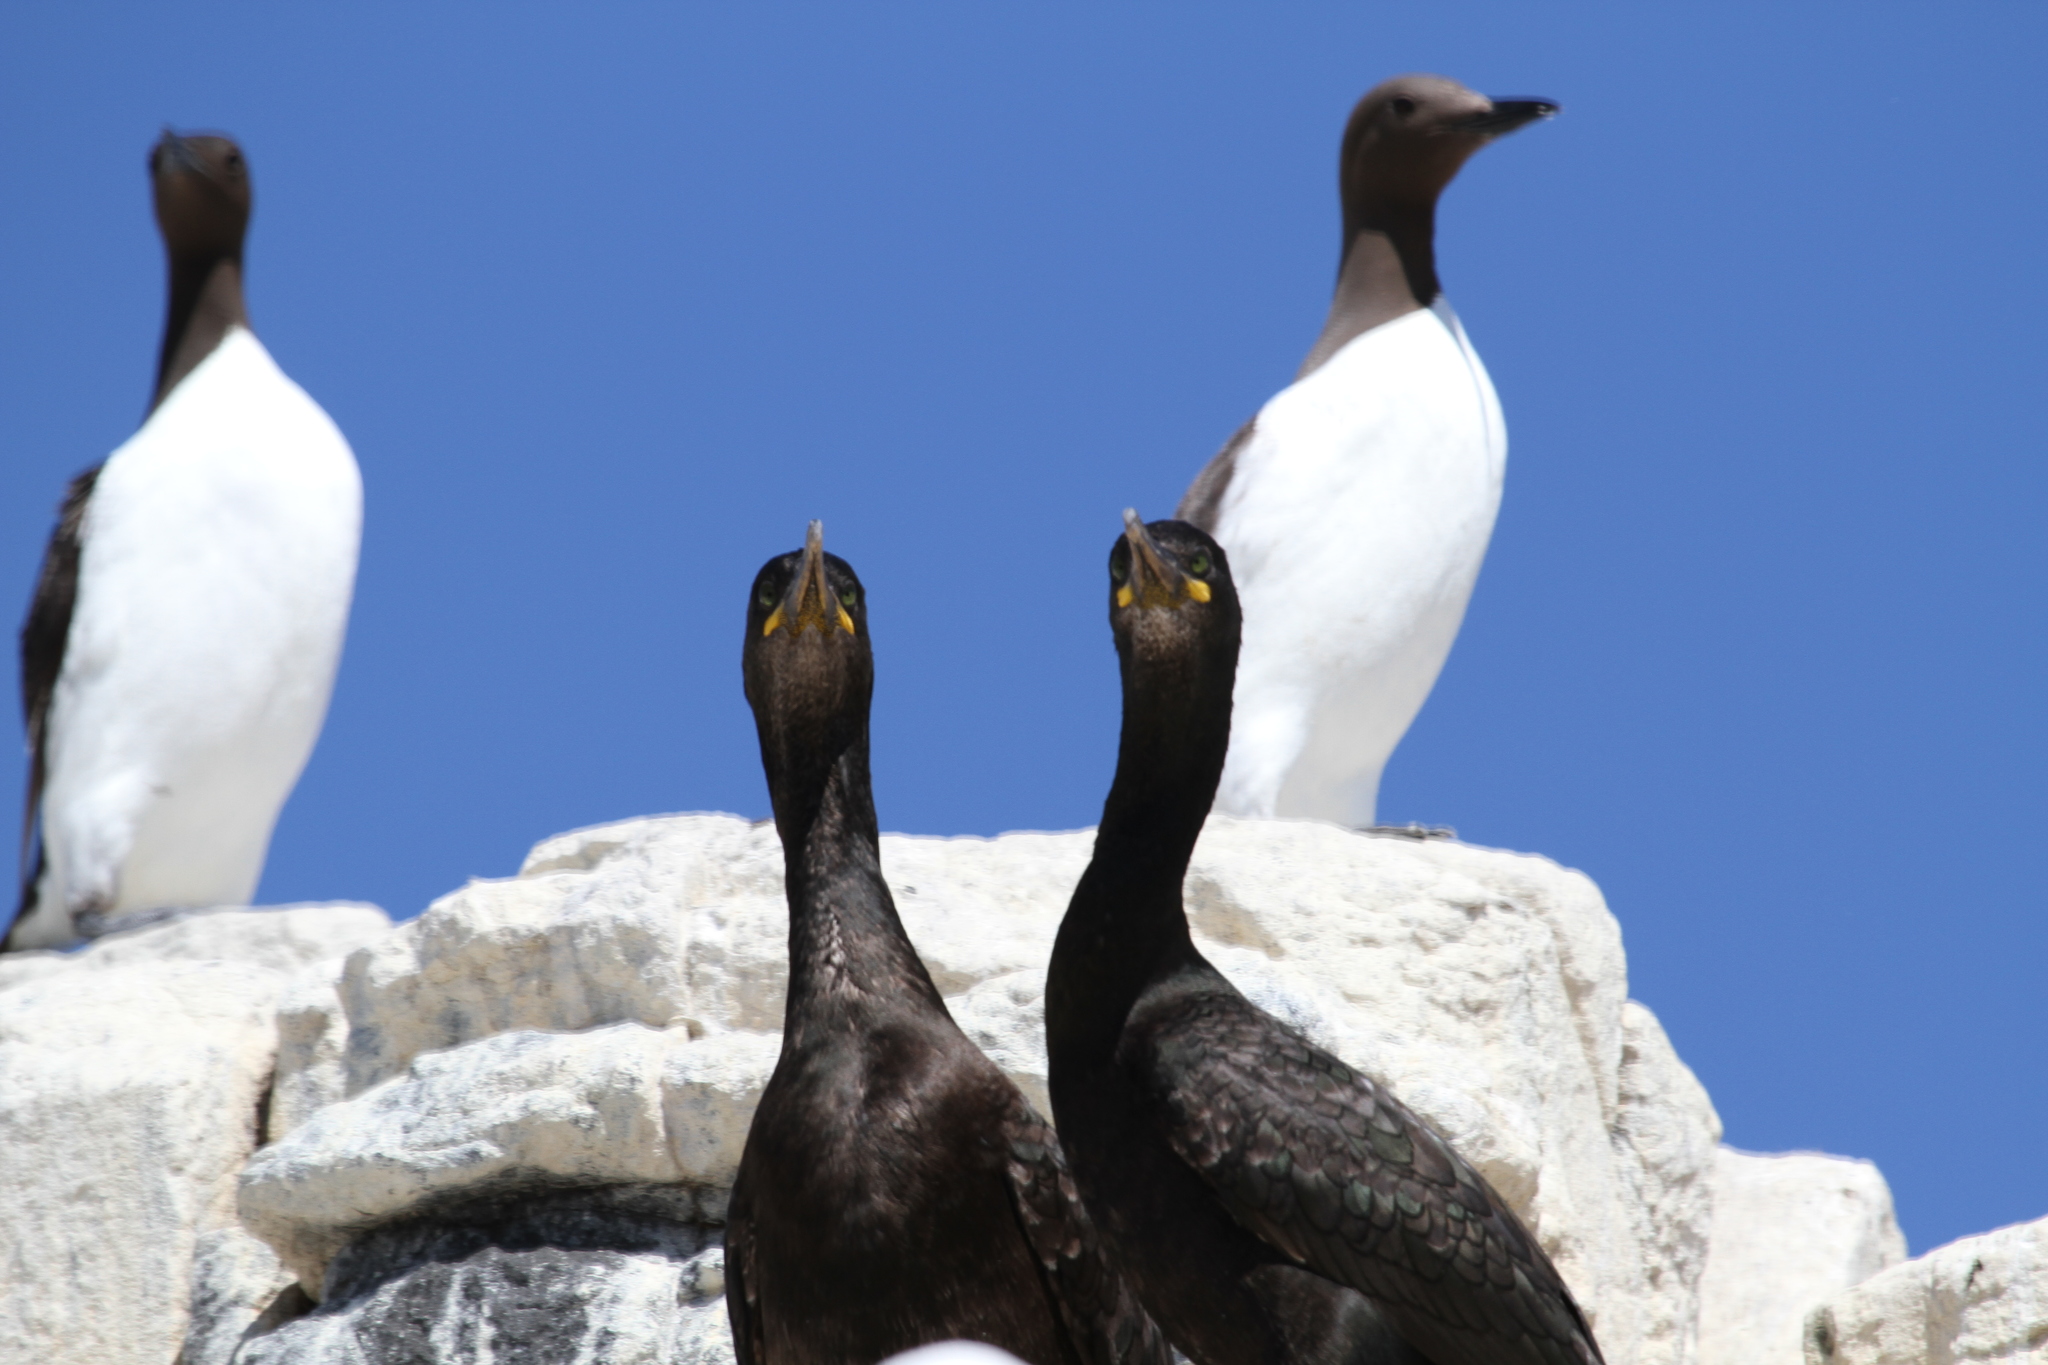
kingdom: Animalia
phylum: Chordata
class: Aves
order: Charadriiformes
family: Alcidae
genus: Uria
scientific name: Uria aalge
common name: Common murre
